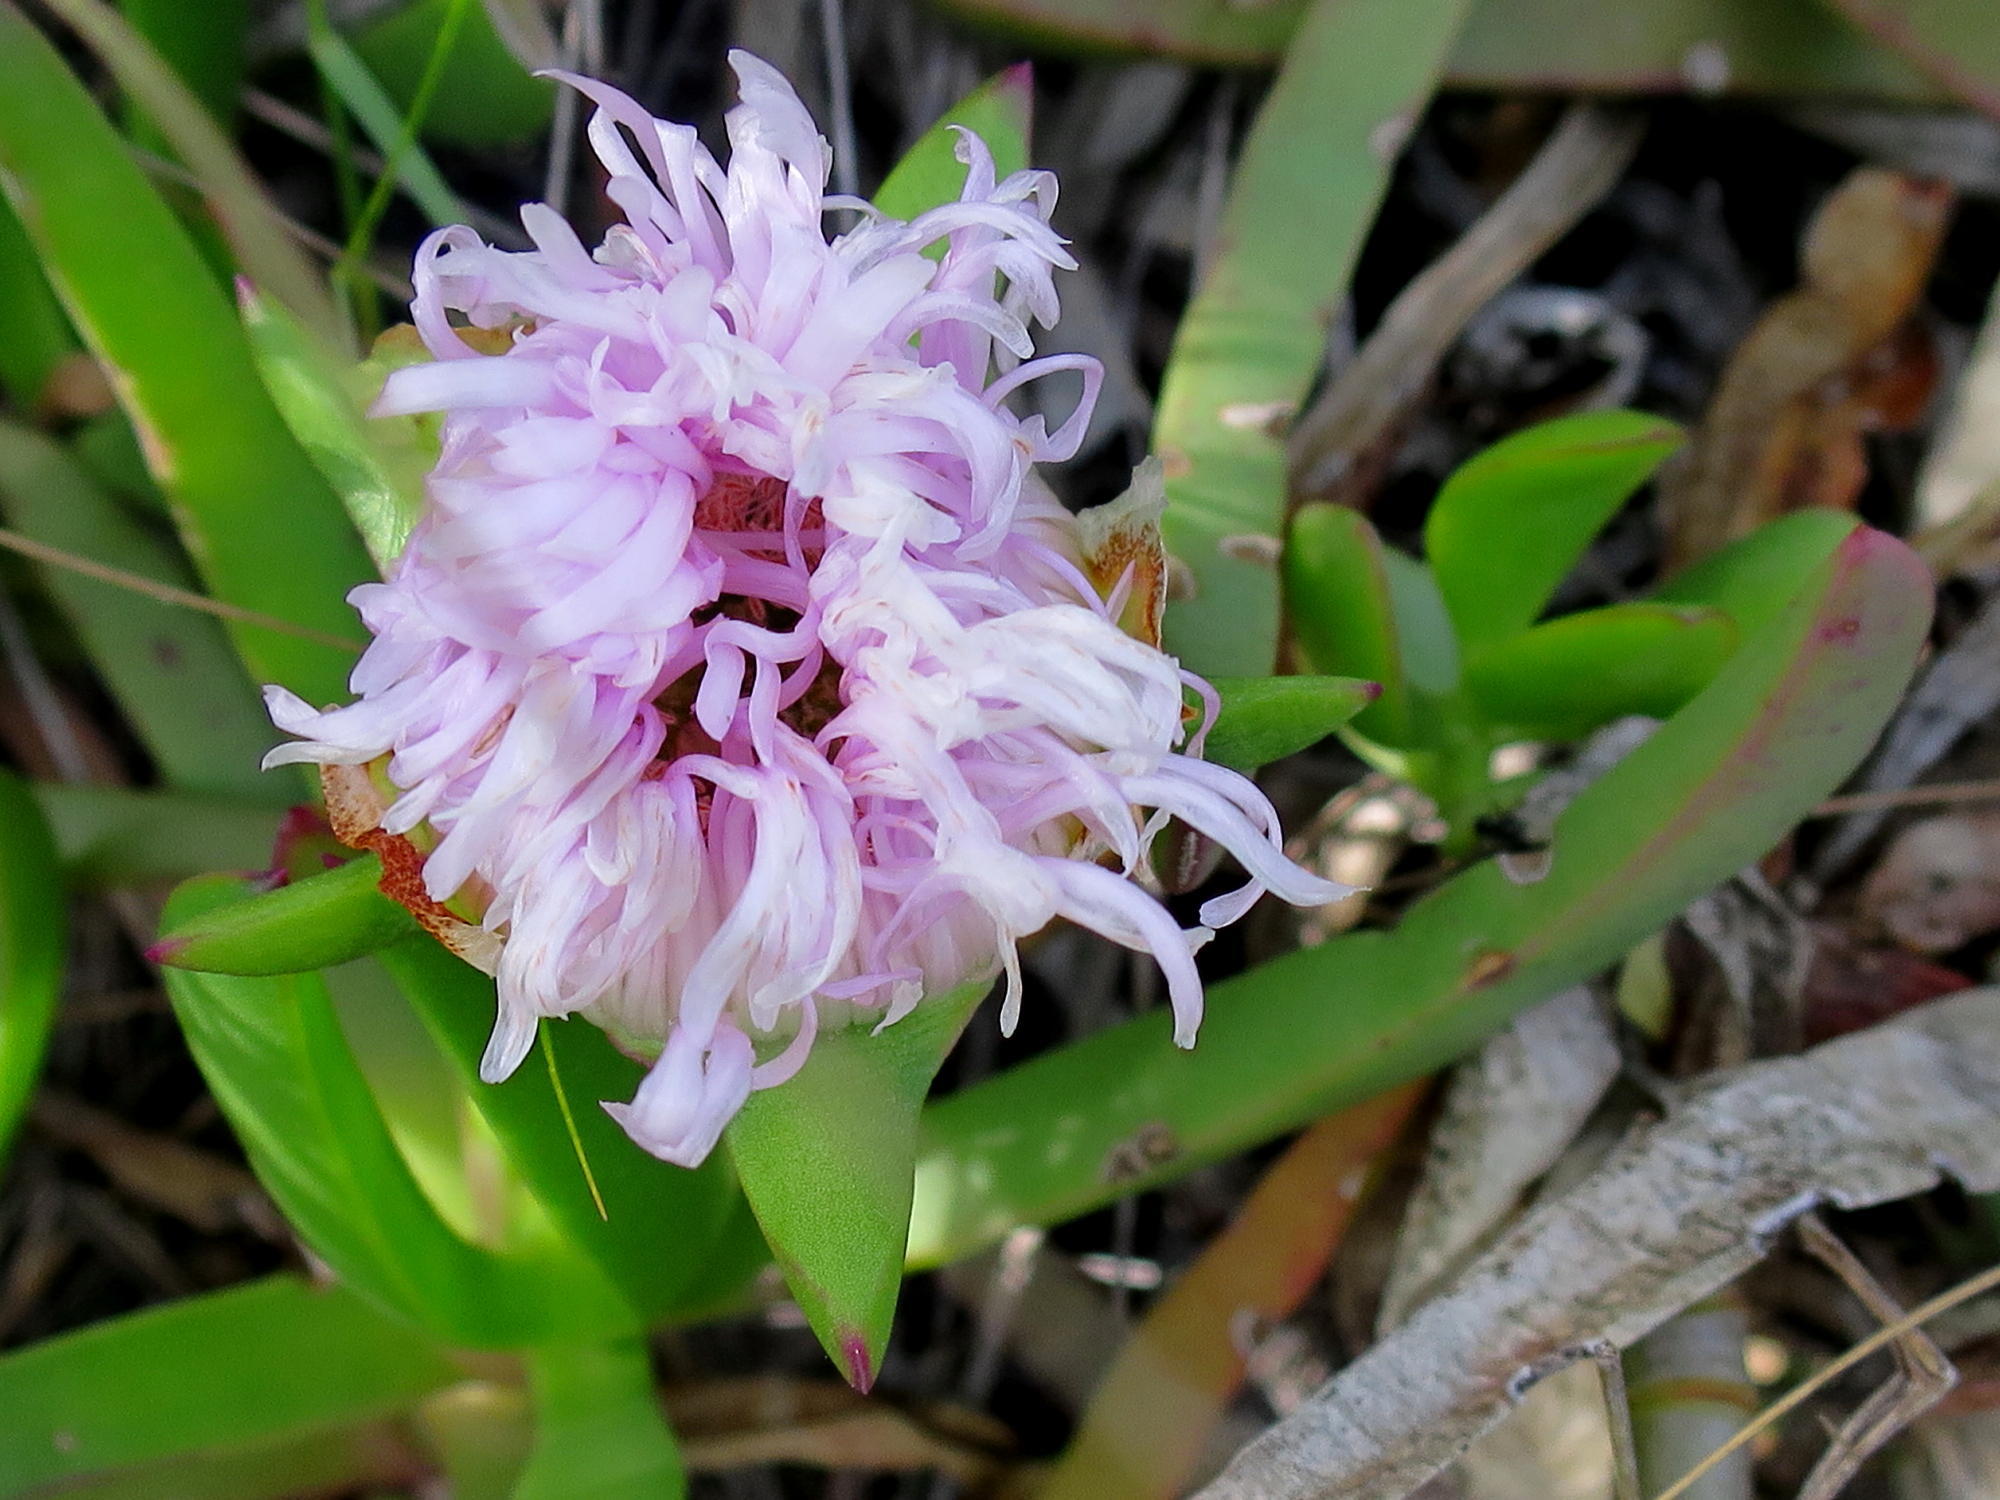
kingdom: Plantae
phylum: Tracheophyta
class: Magnoliopsida
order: Caryophyllales
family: Aizoaceae
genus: Carpobrotus
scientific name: Carpobrotus mellei
